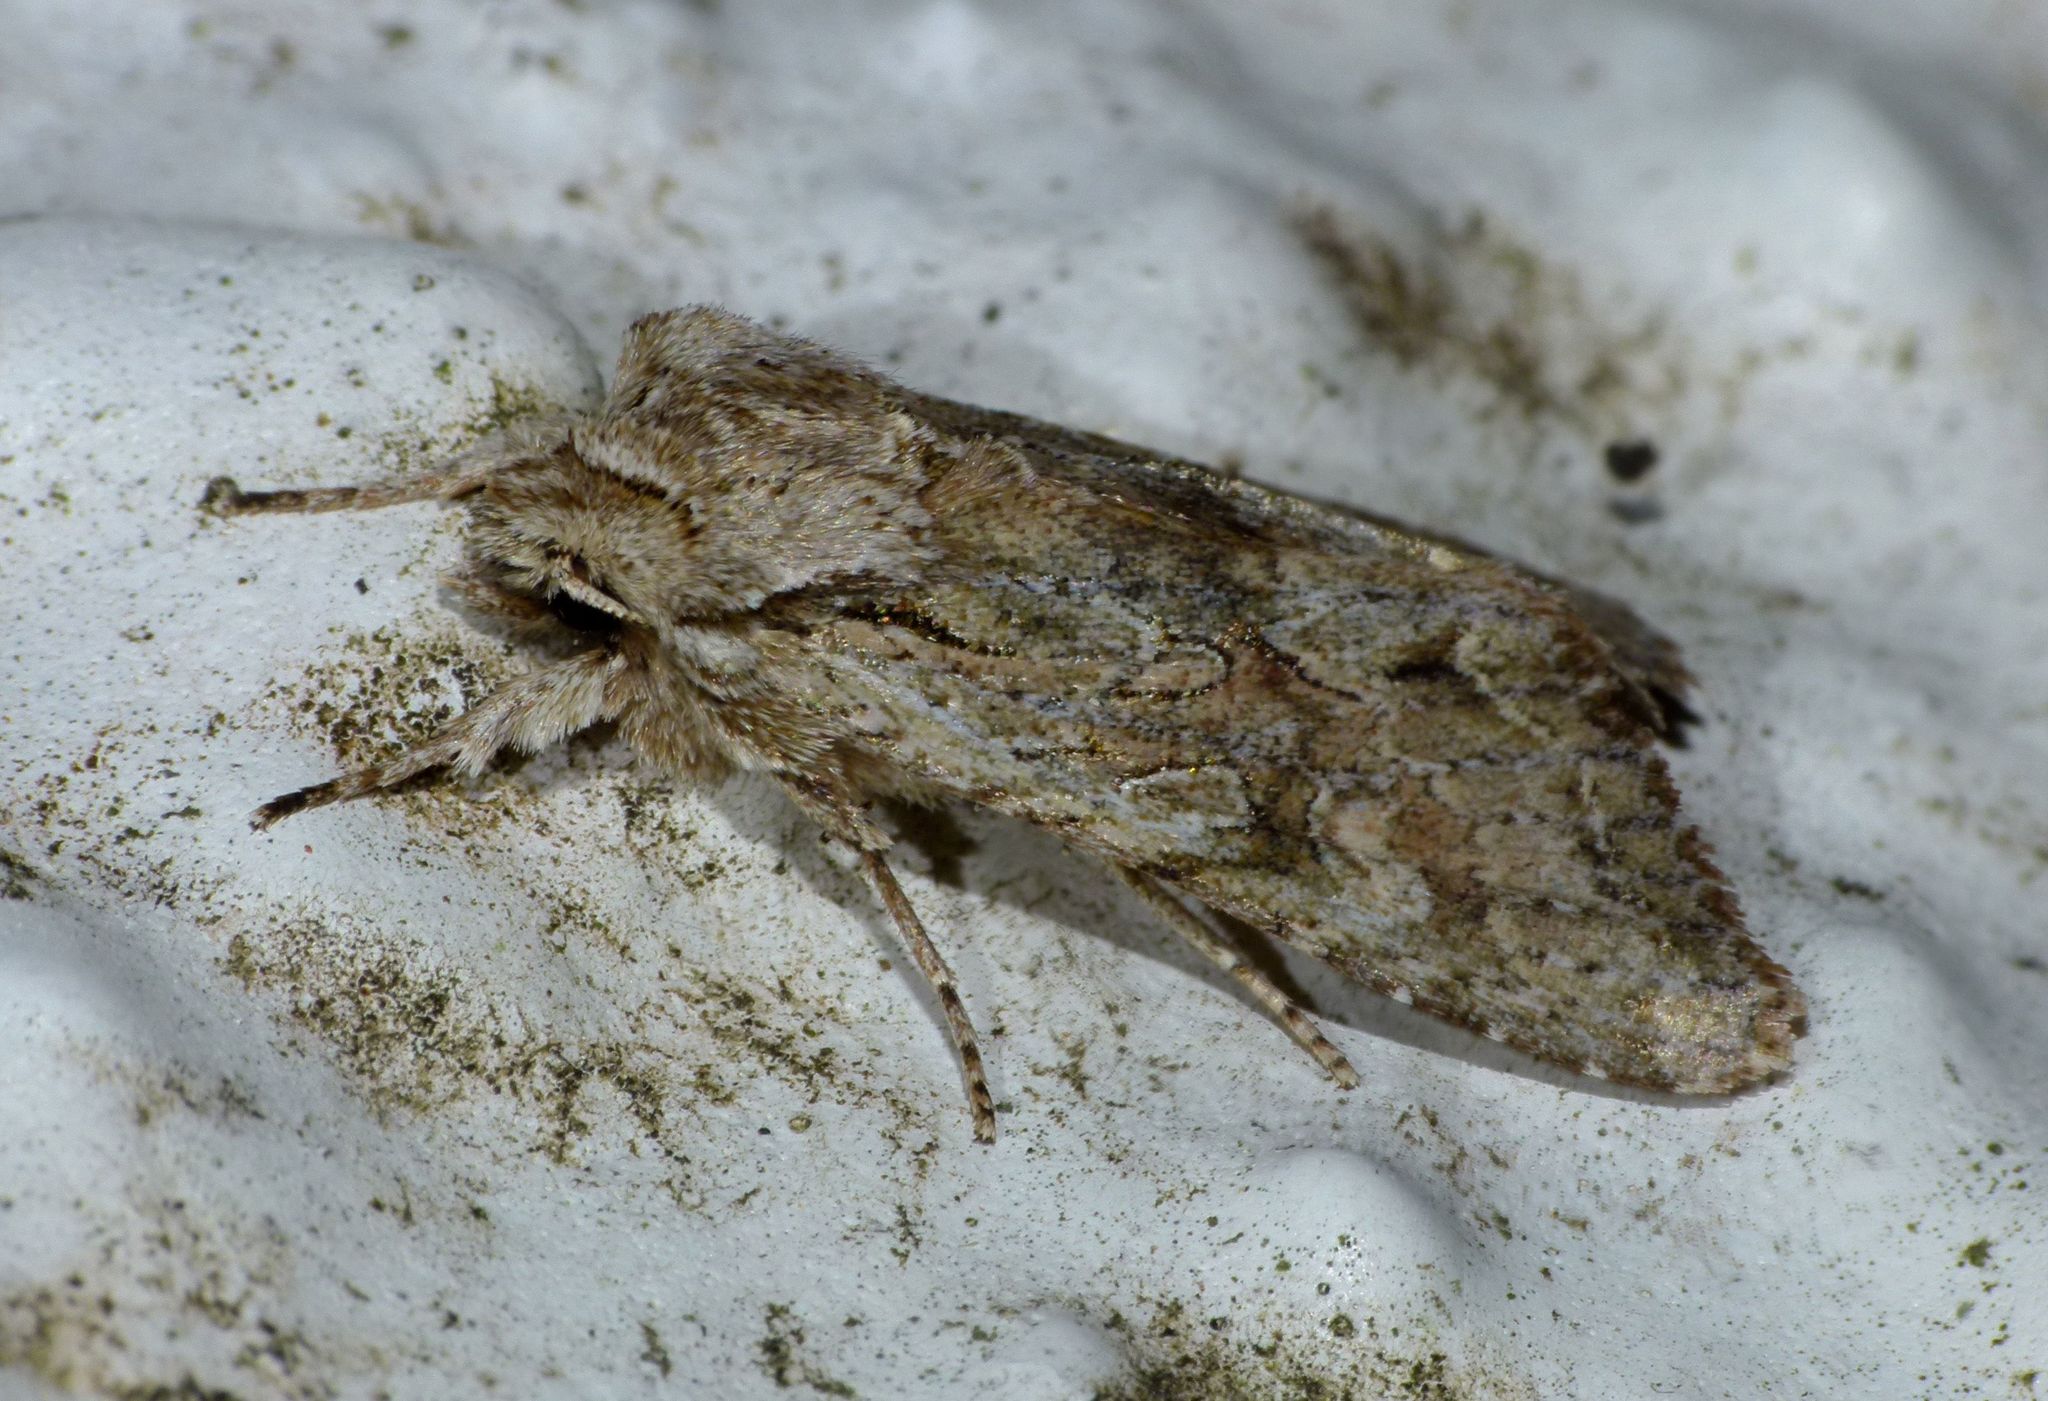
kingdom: Animalia
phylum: Arthropoda
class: Insecta
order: Lepidoptera
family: Noctuidae
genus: Ichneutica
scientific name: Ichneutica mutans
